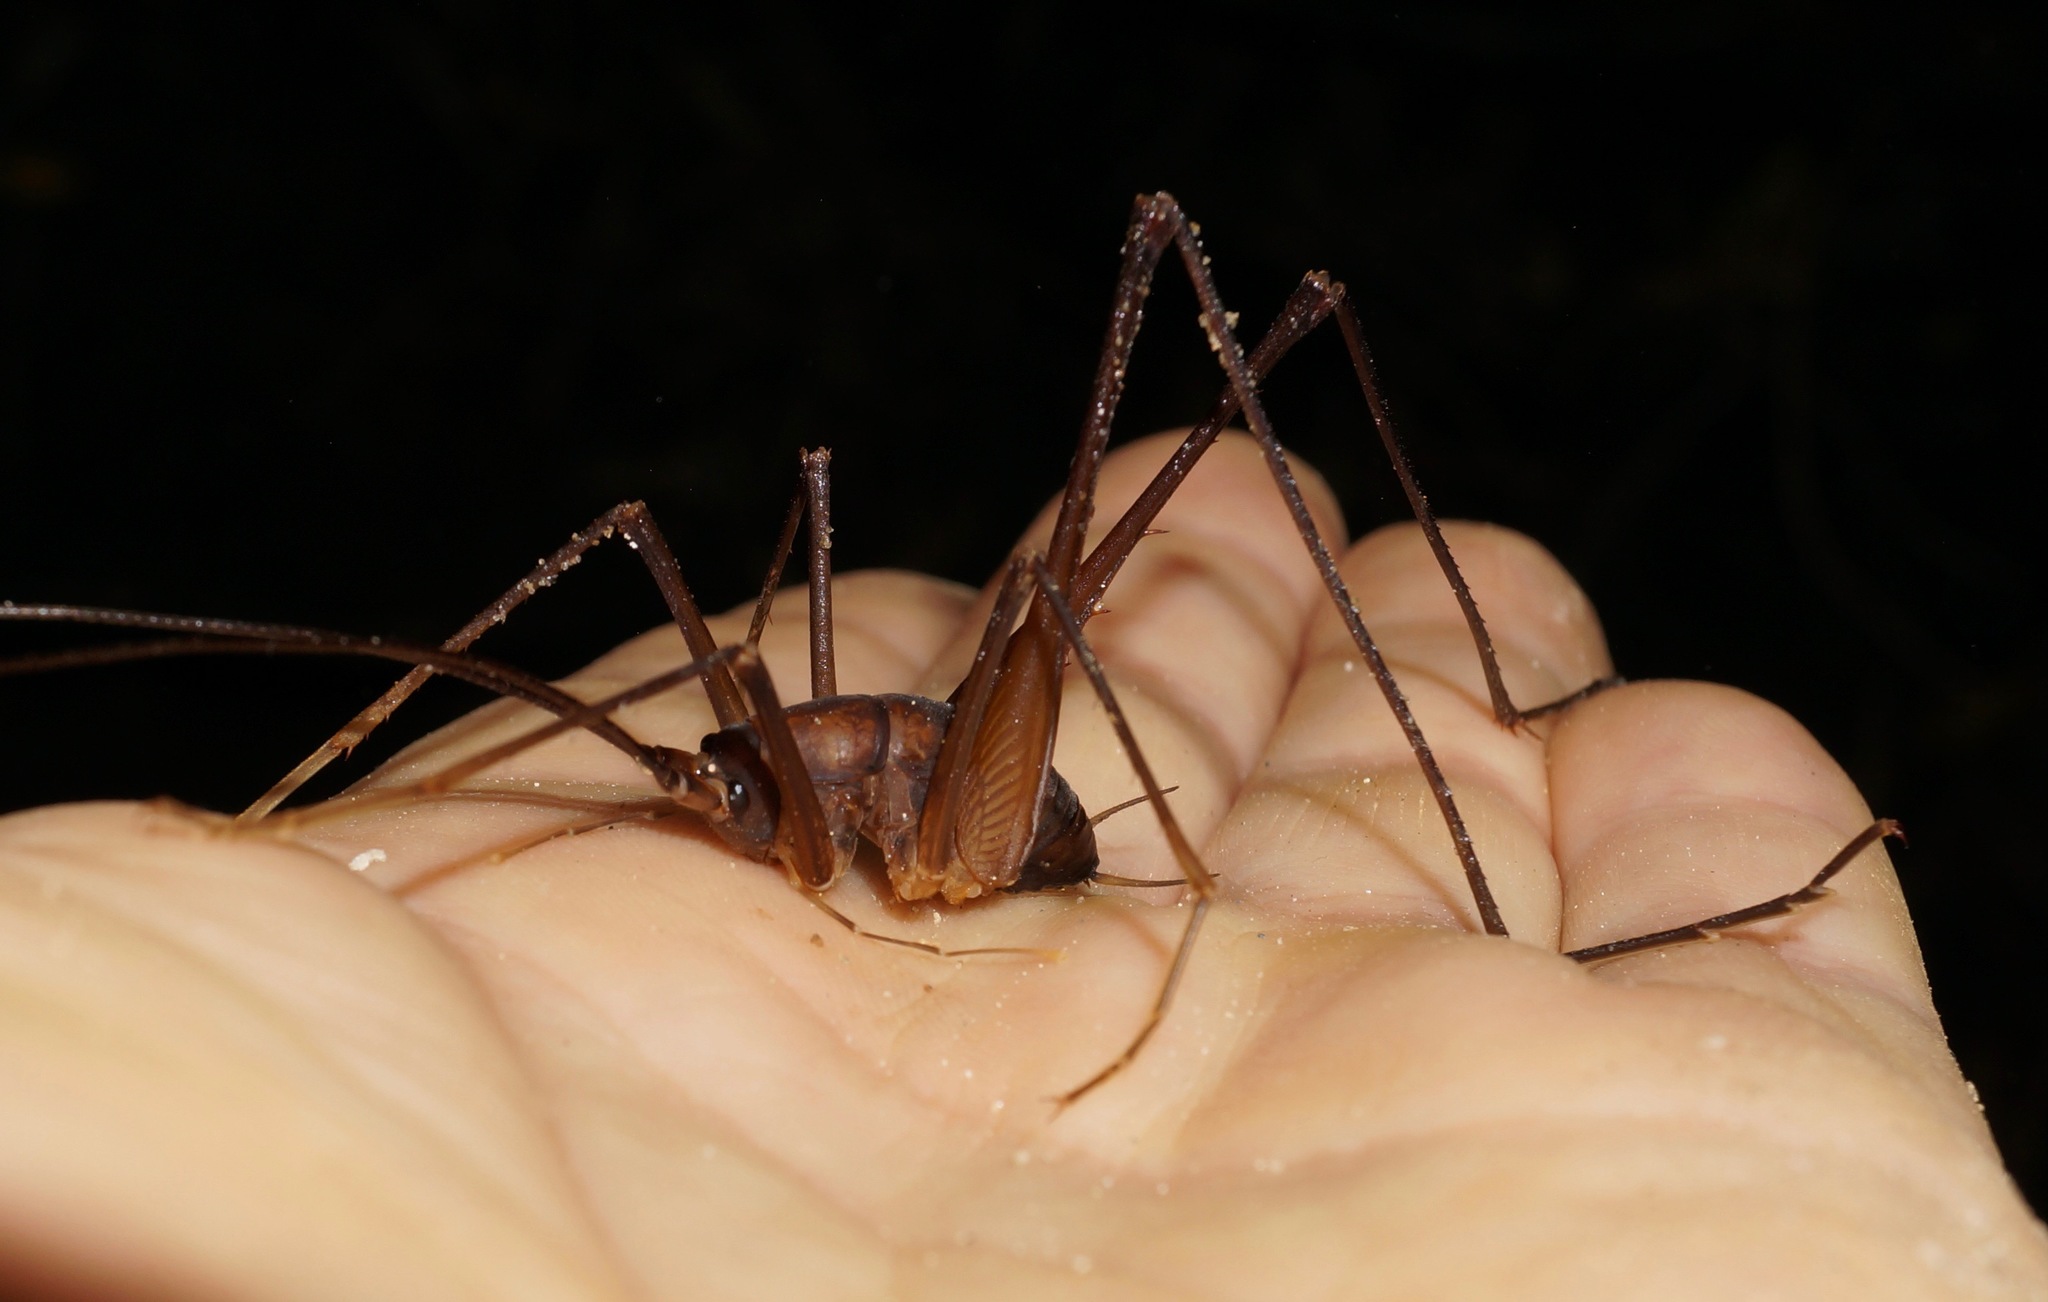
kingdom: Animalia
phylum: Arthropoda
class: Insecta
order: Orthoptera
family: Rhaphidophoridae
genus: Macropathus
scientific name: Macropathus filifer
